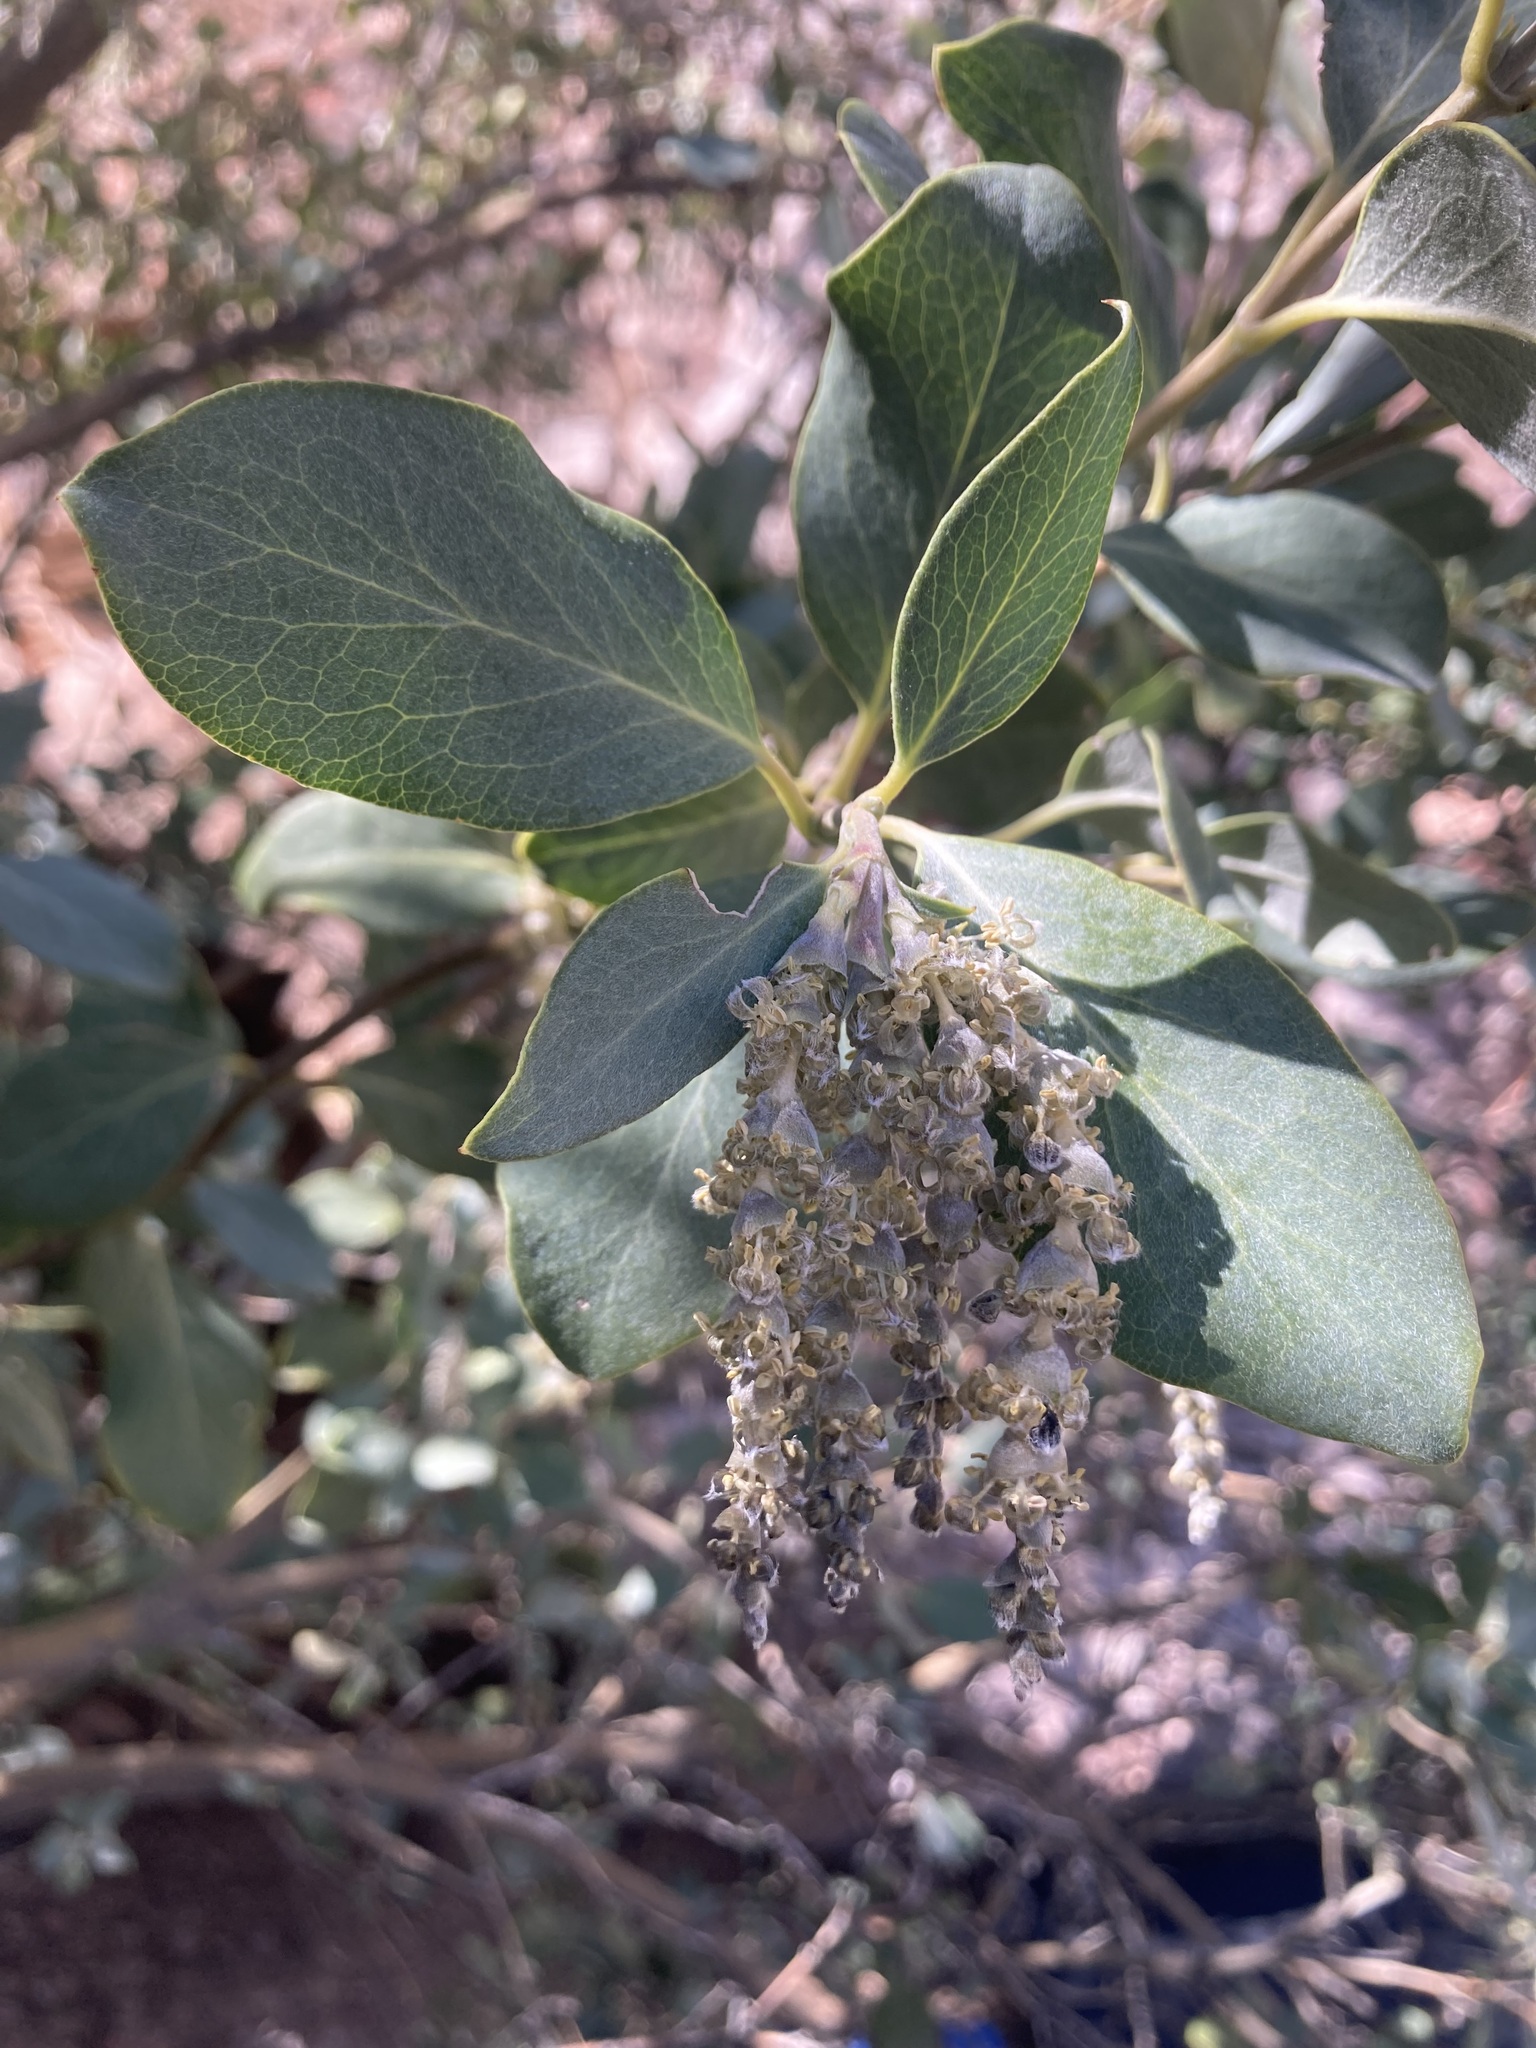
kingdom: Plantae
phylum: Tracheophyta
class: Magnoliopsida
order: Garryales
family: Garryaceae
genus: Garrya
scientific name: Garrya flavescens
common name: Ashy silk-tassel
